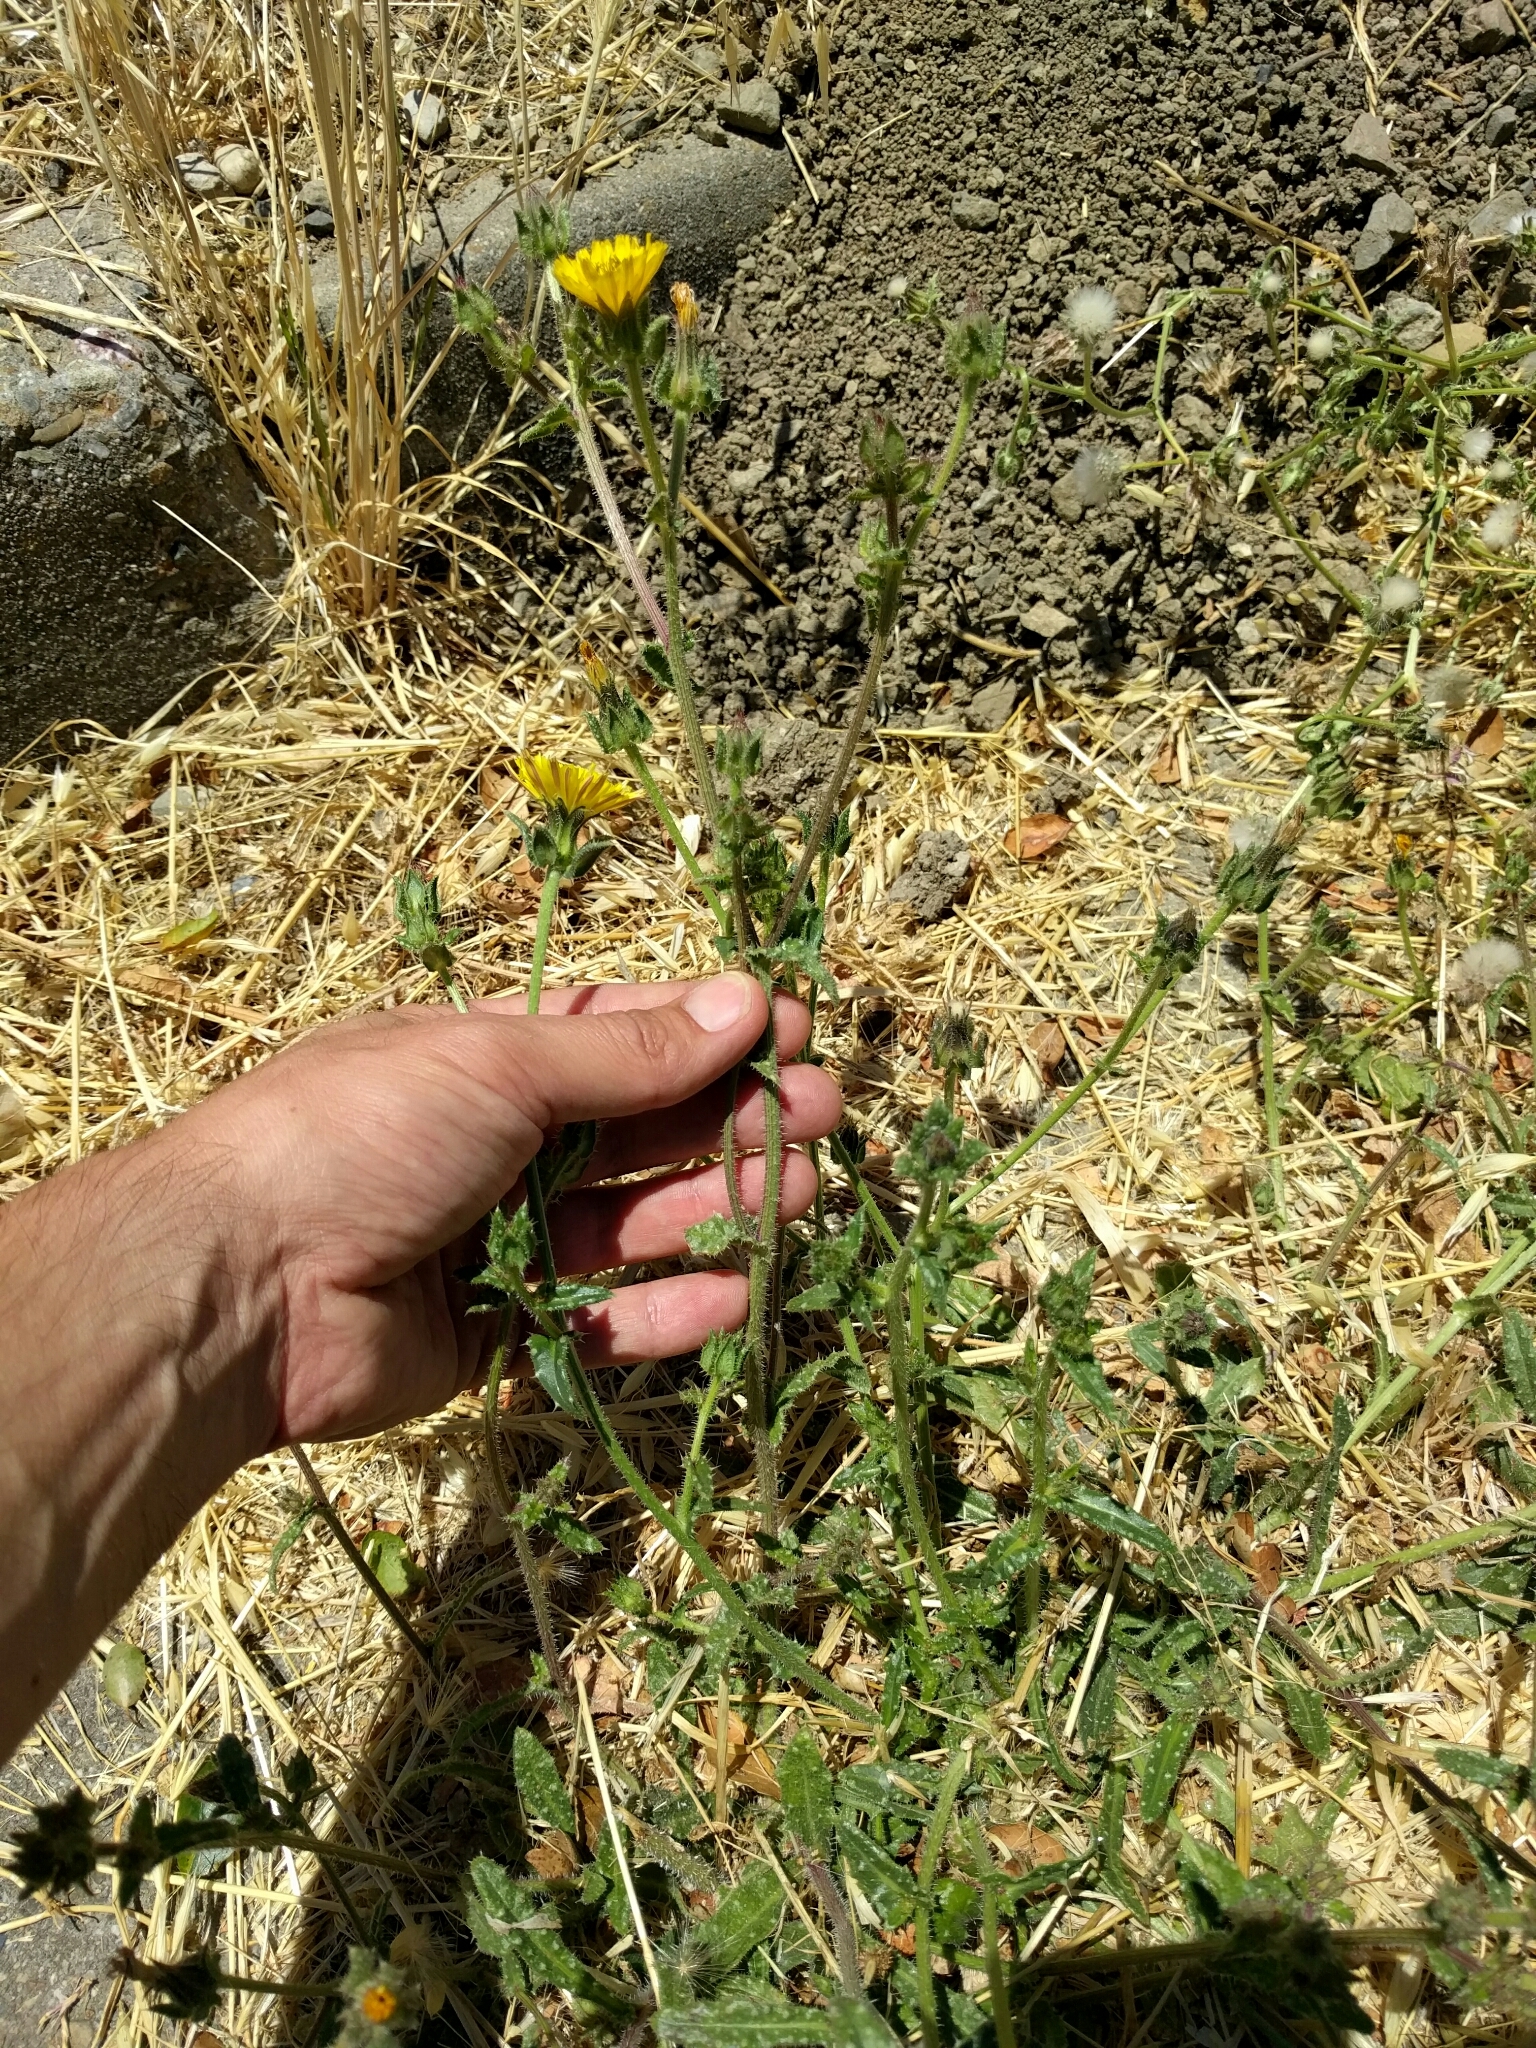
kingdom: Plantae
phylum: Tracheophyta
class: Magnoliopsida
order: Asterales
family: Asteraceae
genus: Helminthotheca
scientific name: Helminthotheca echioides
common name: Ox-tongue
